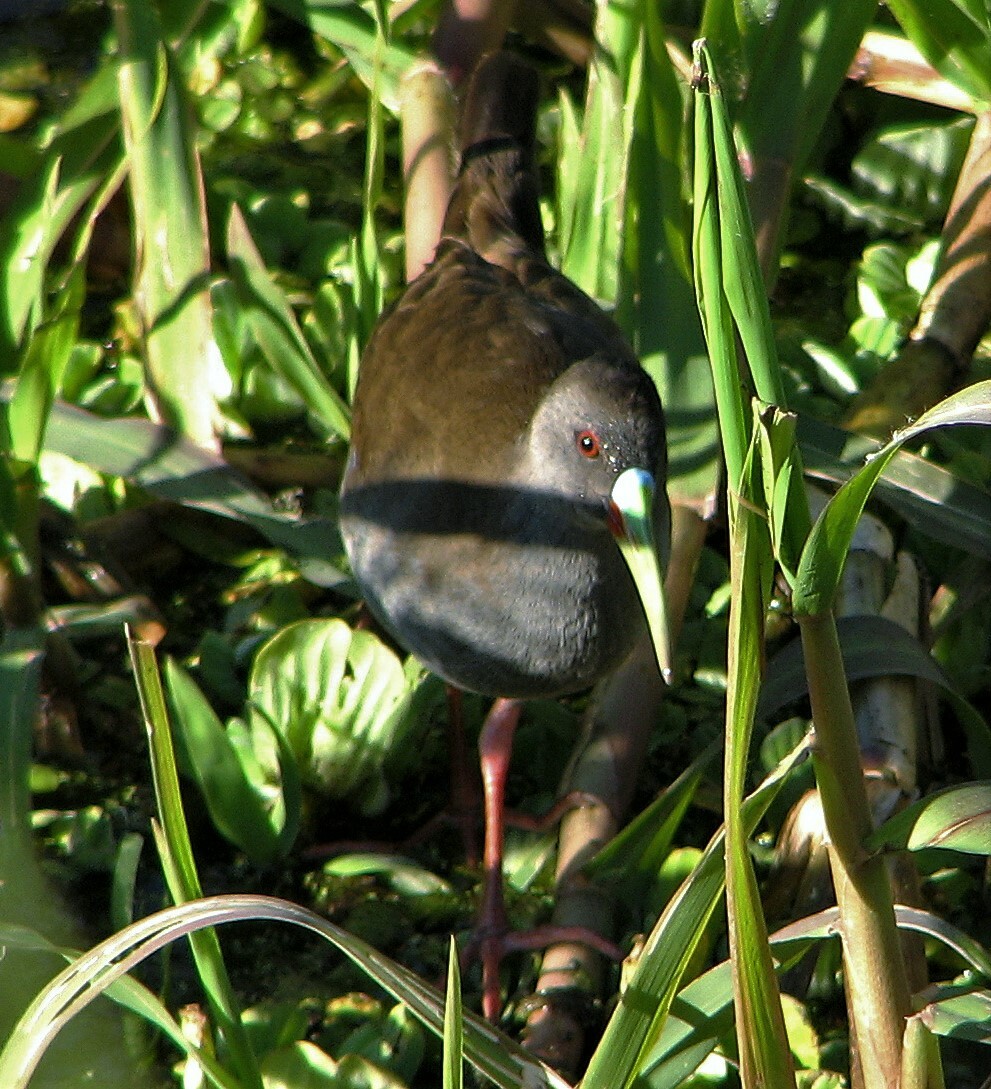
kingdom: Animalia
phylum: Chordata
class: Aves
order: Gruiformes
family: Rallidae
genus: Pardirallus
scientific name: Pardirallus sanguinolentus
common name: Plumbeous rail
